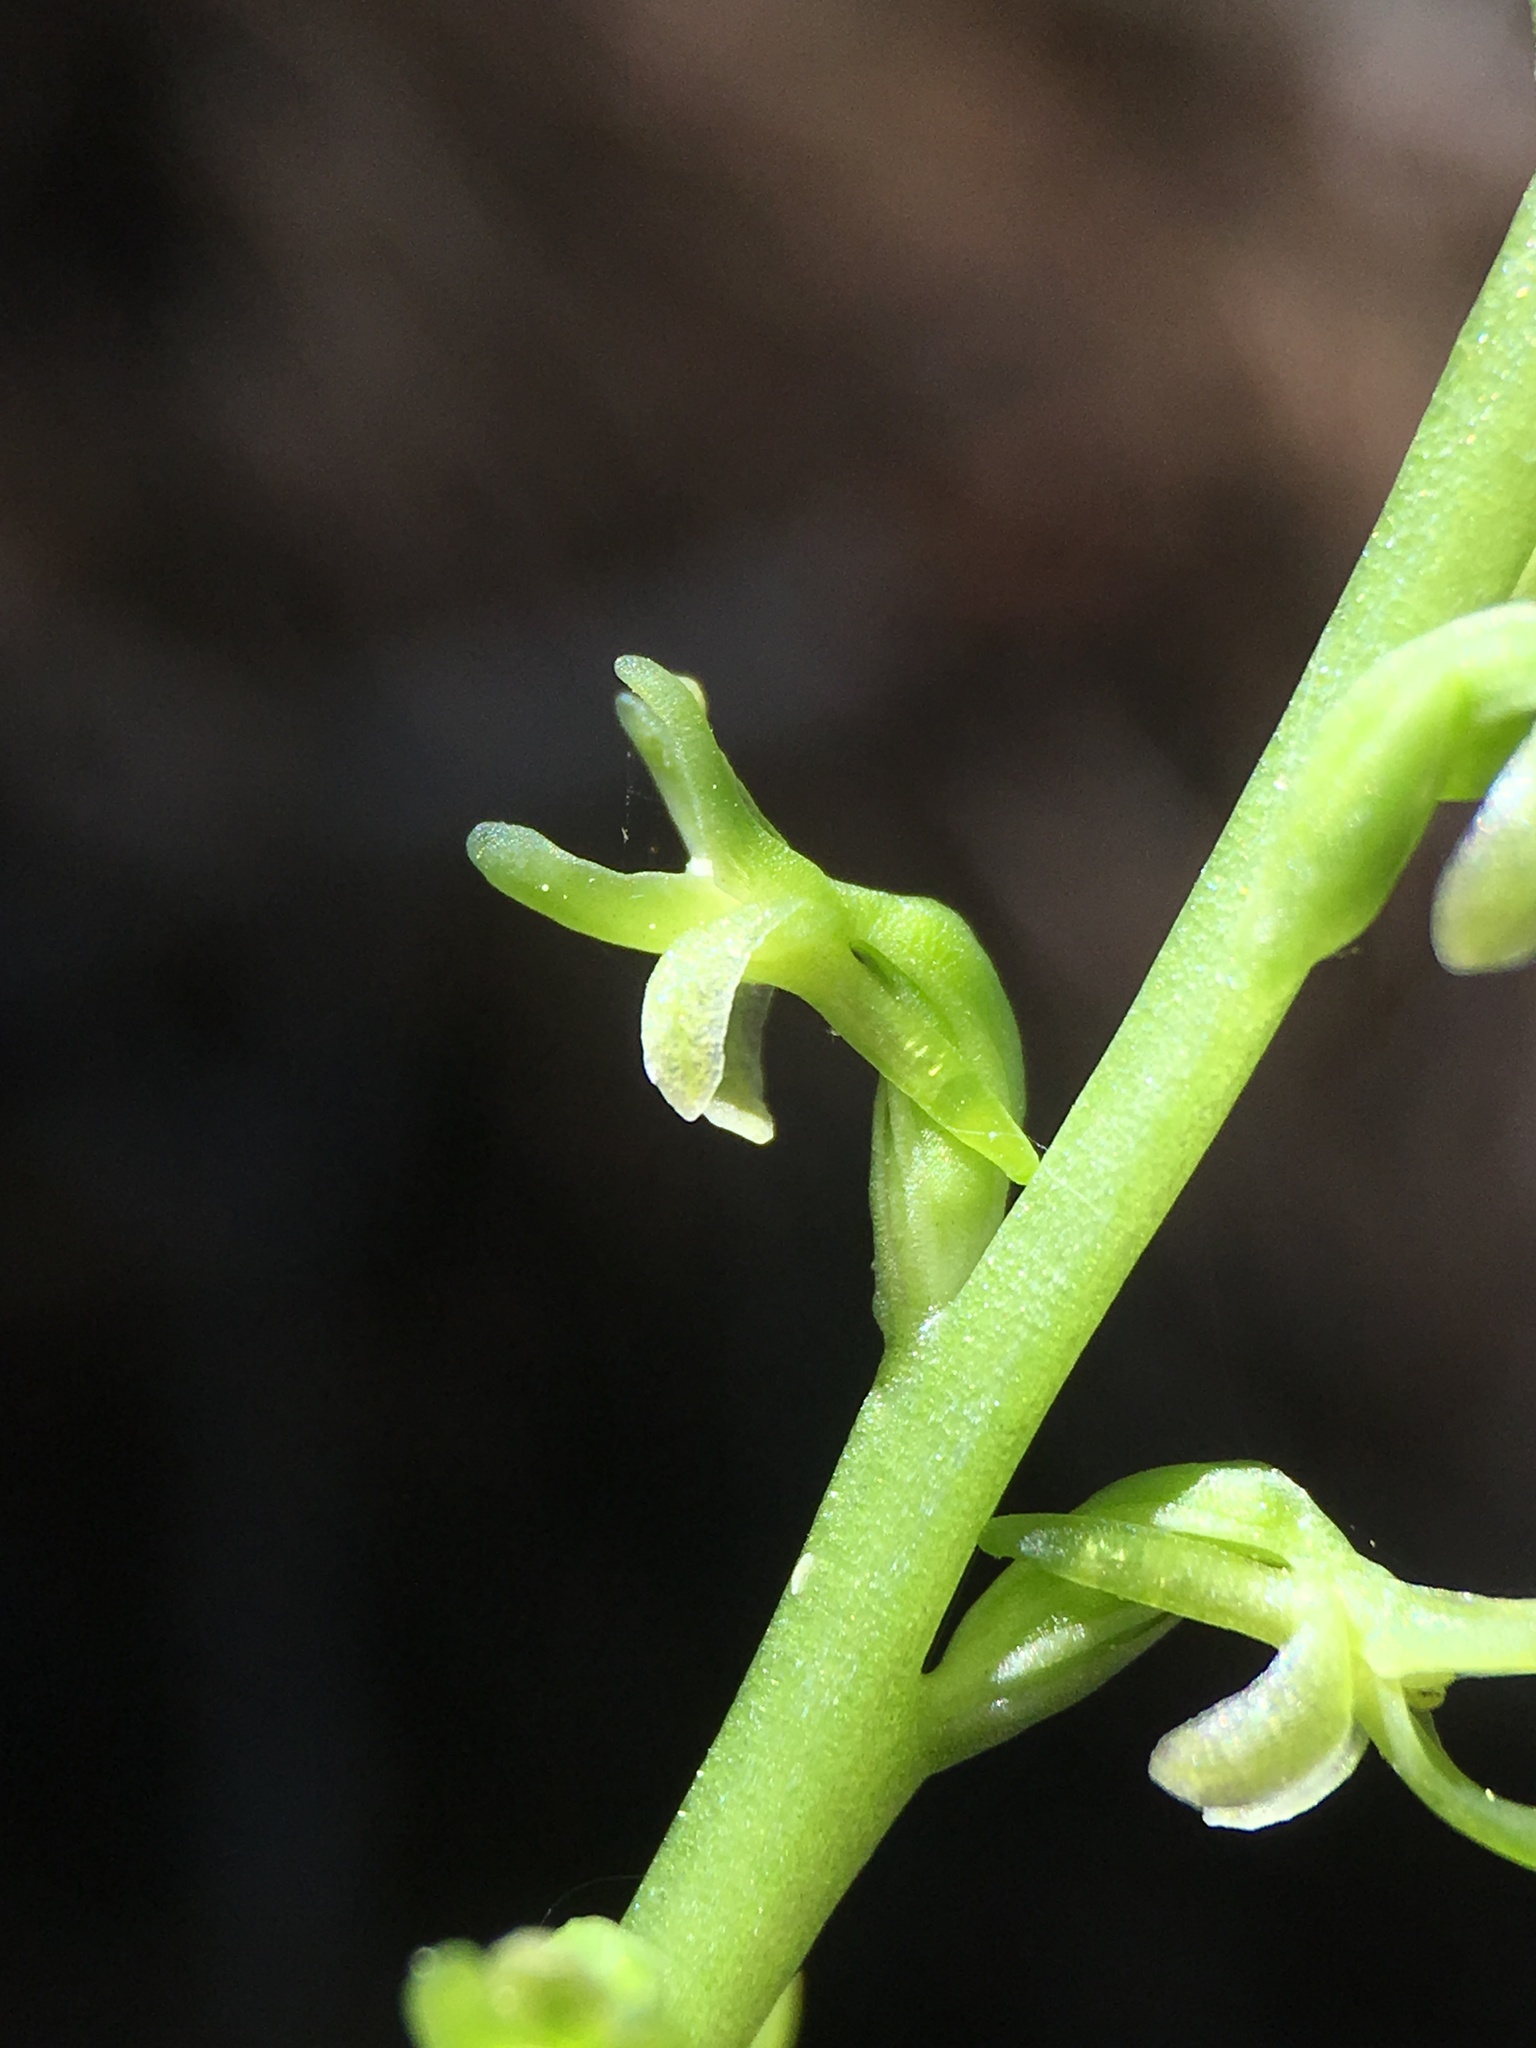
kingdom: Plantae
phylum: Tracheophyta
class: Liliopsida
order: Asparagales
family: Orchidaceae
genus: Platanthera
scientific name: Platanthera unalascensis
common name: Alaska bog orchid
